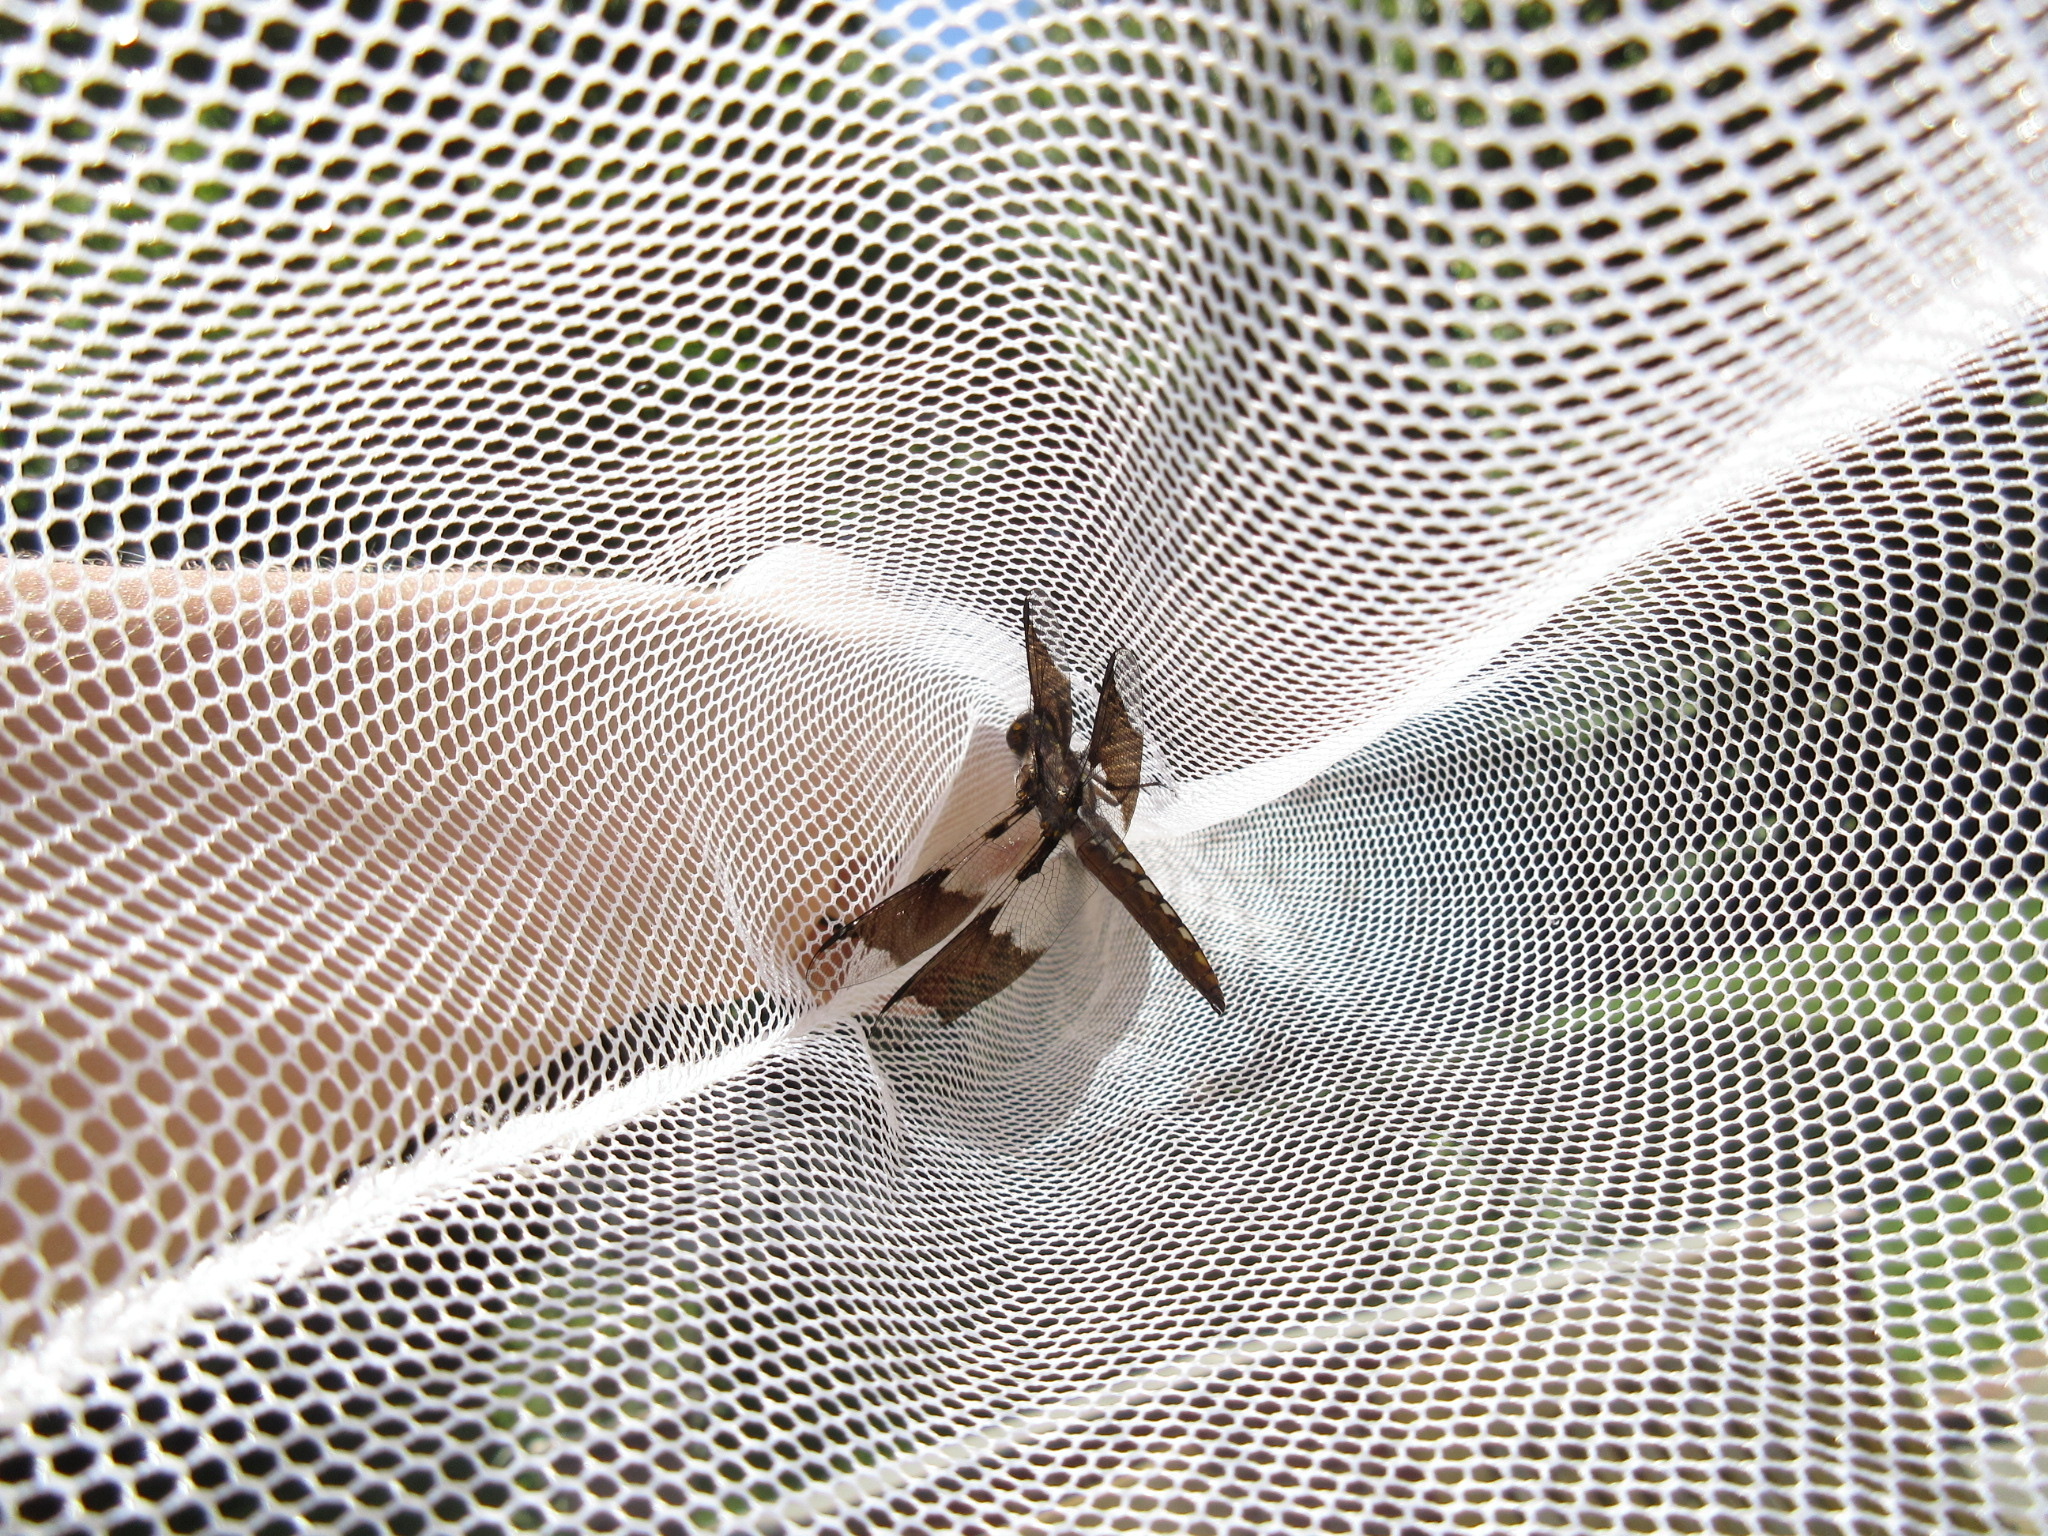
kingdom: Animalia
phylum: Arthropoda
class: Insecta
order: Odonata
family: Libellulidae
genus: Plathemis
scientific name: Plathemis lydia
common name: Common whitetail
